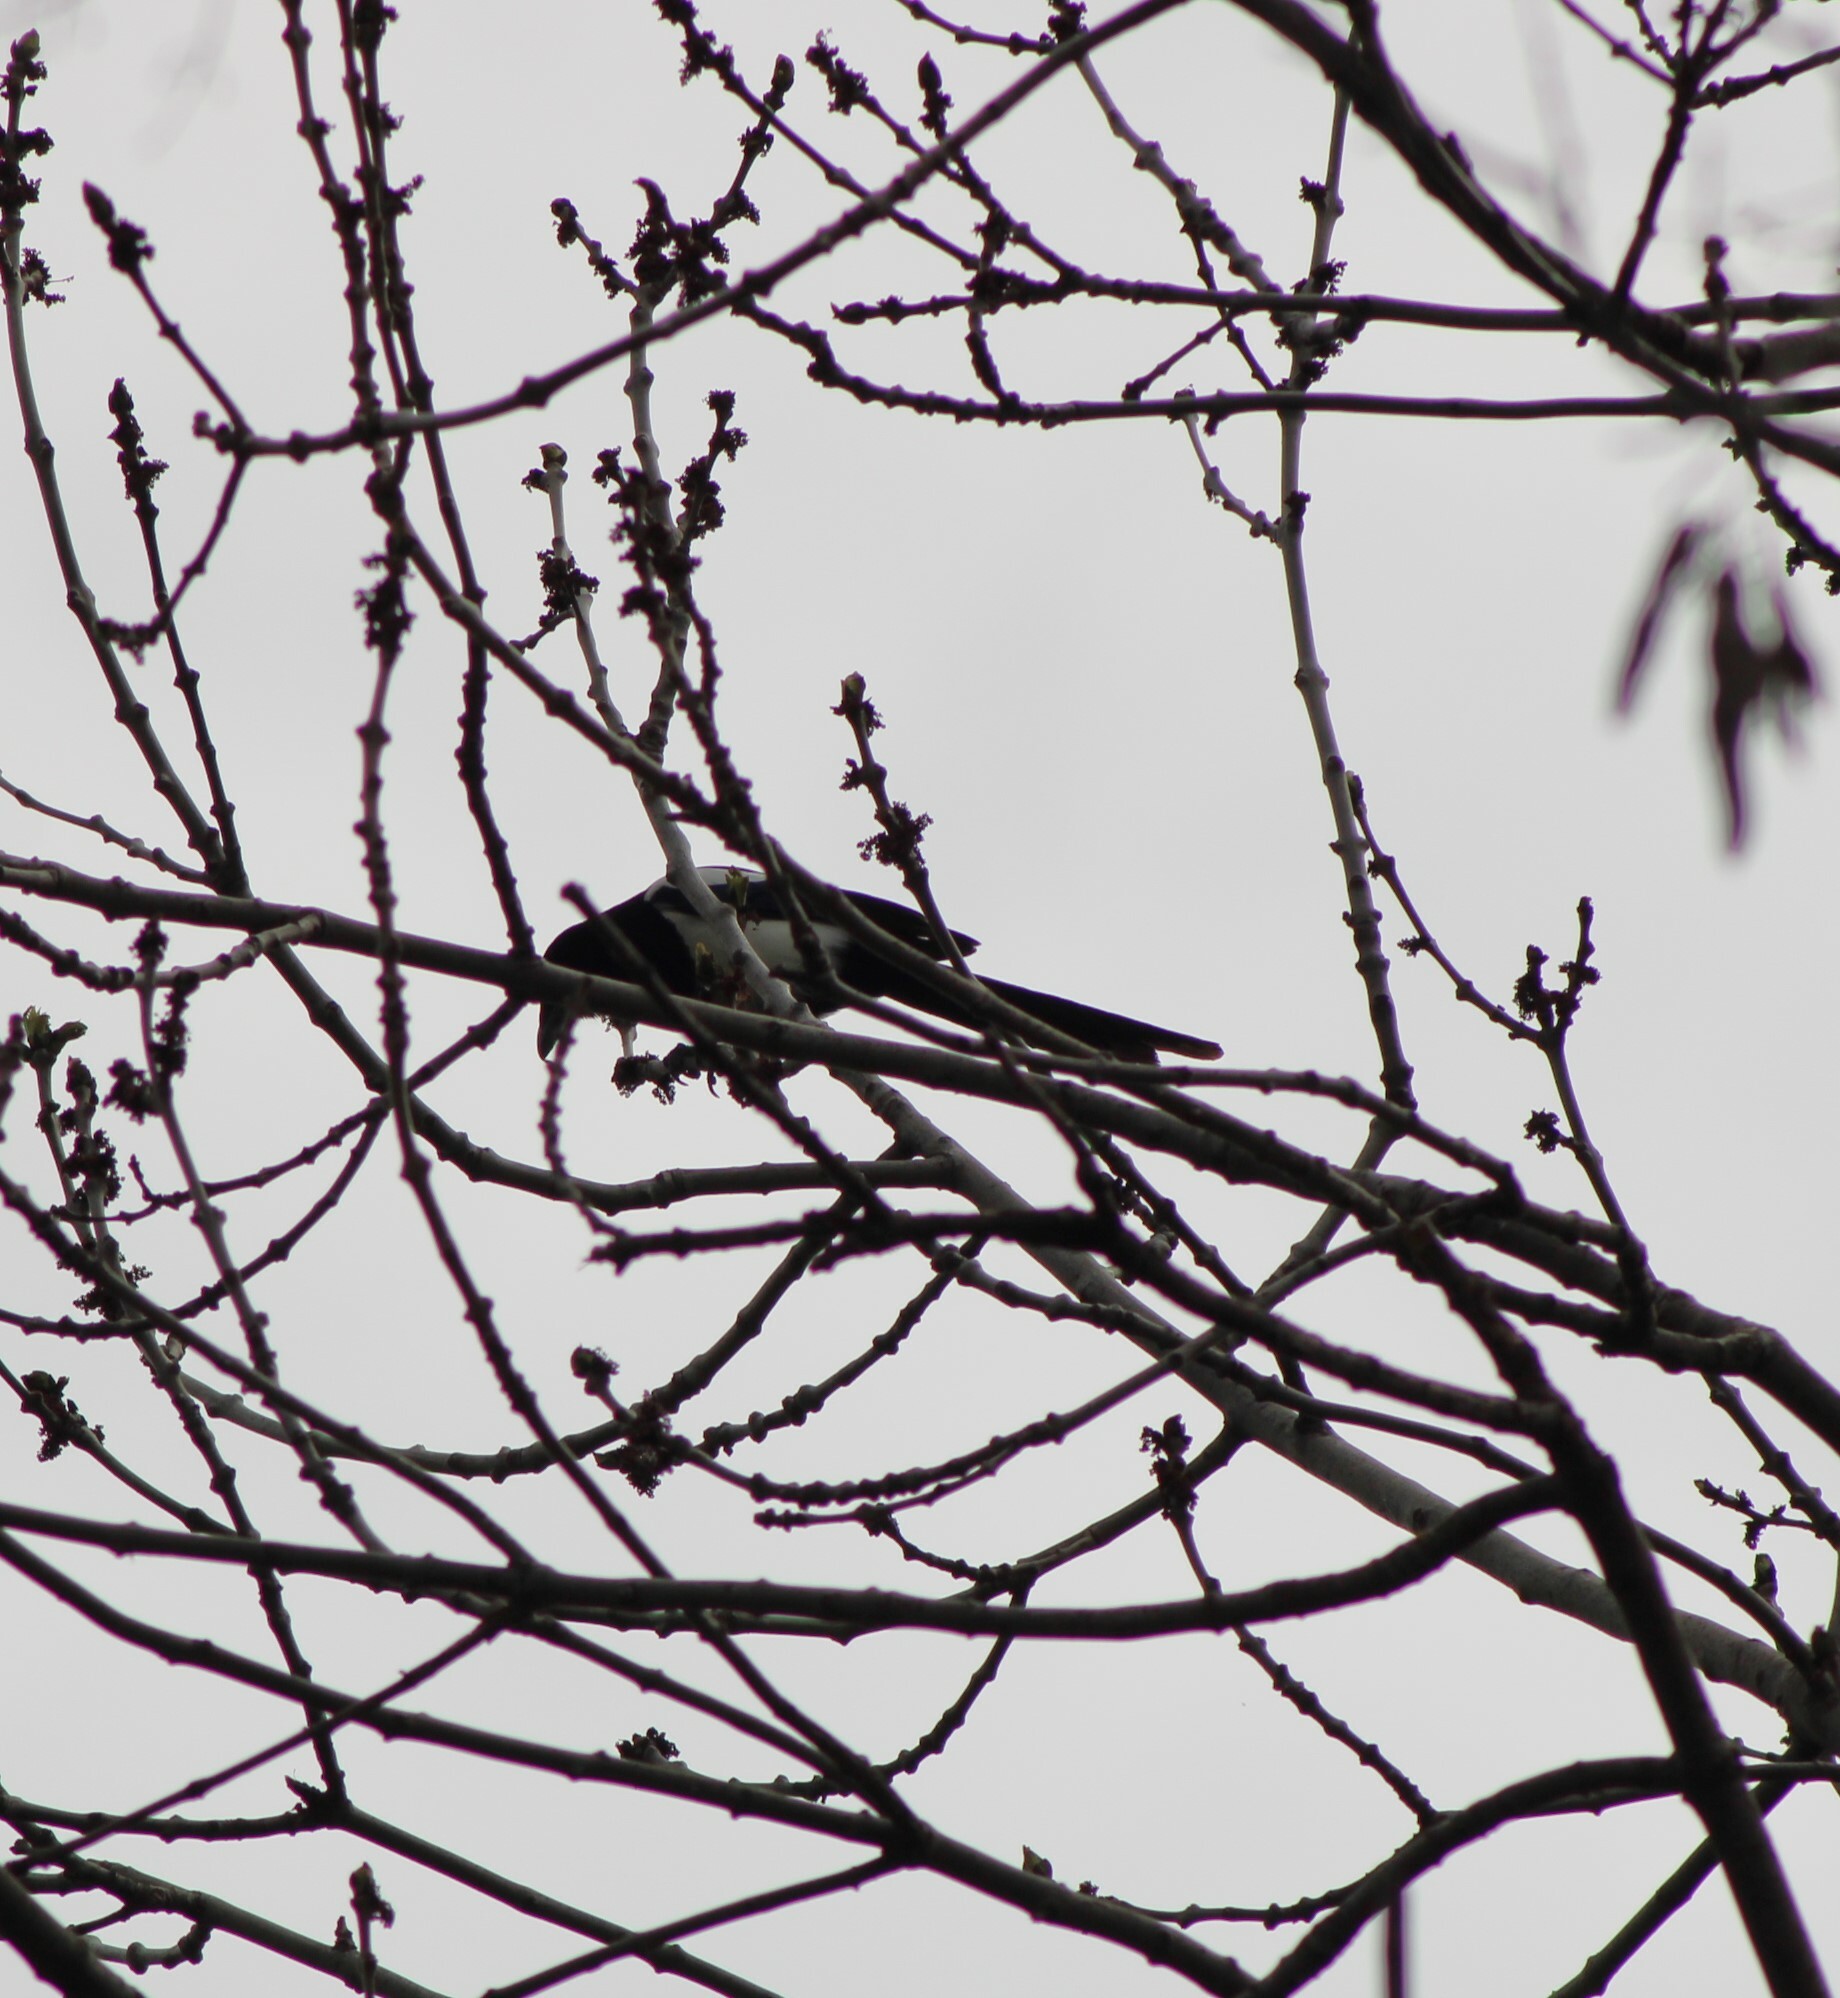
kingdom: Animalia
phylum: Chordata
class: Aves
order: Passeriformes
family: Corvidae
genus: Pica
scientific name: Pica pica
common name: Eurasian magpie
